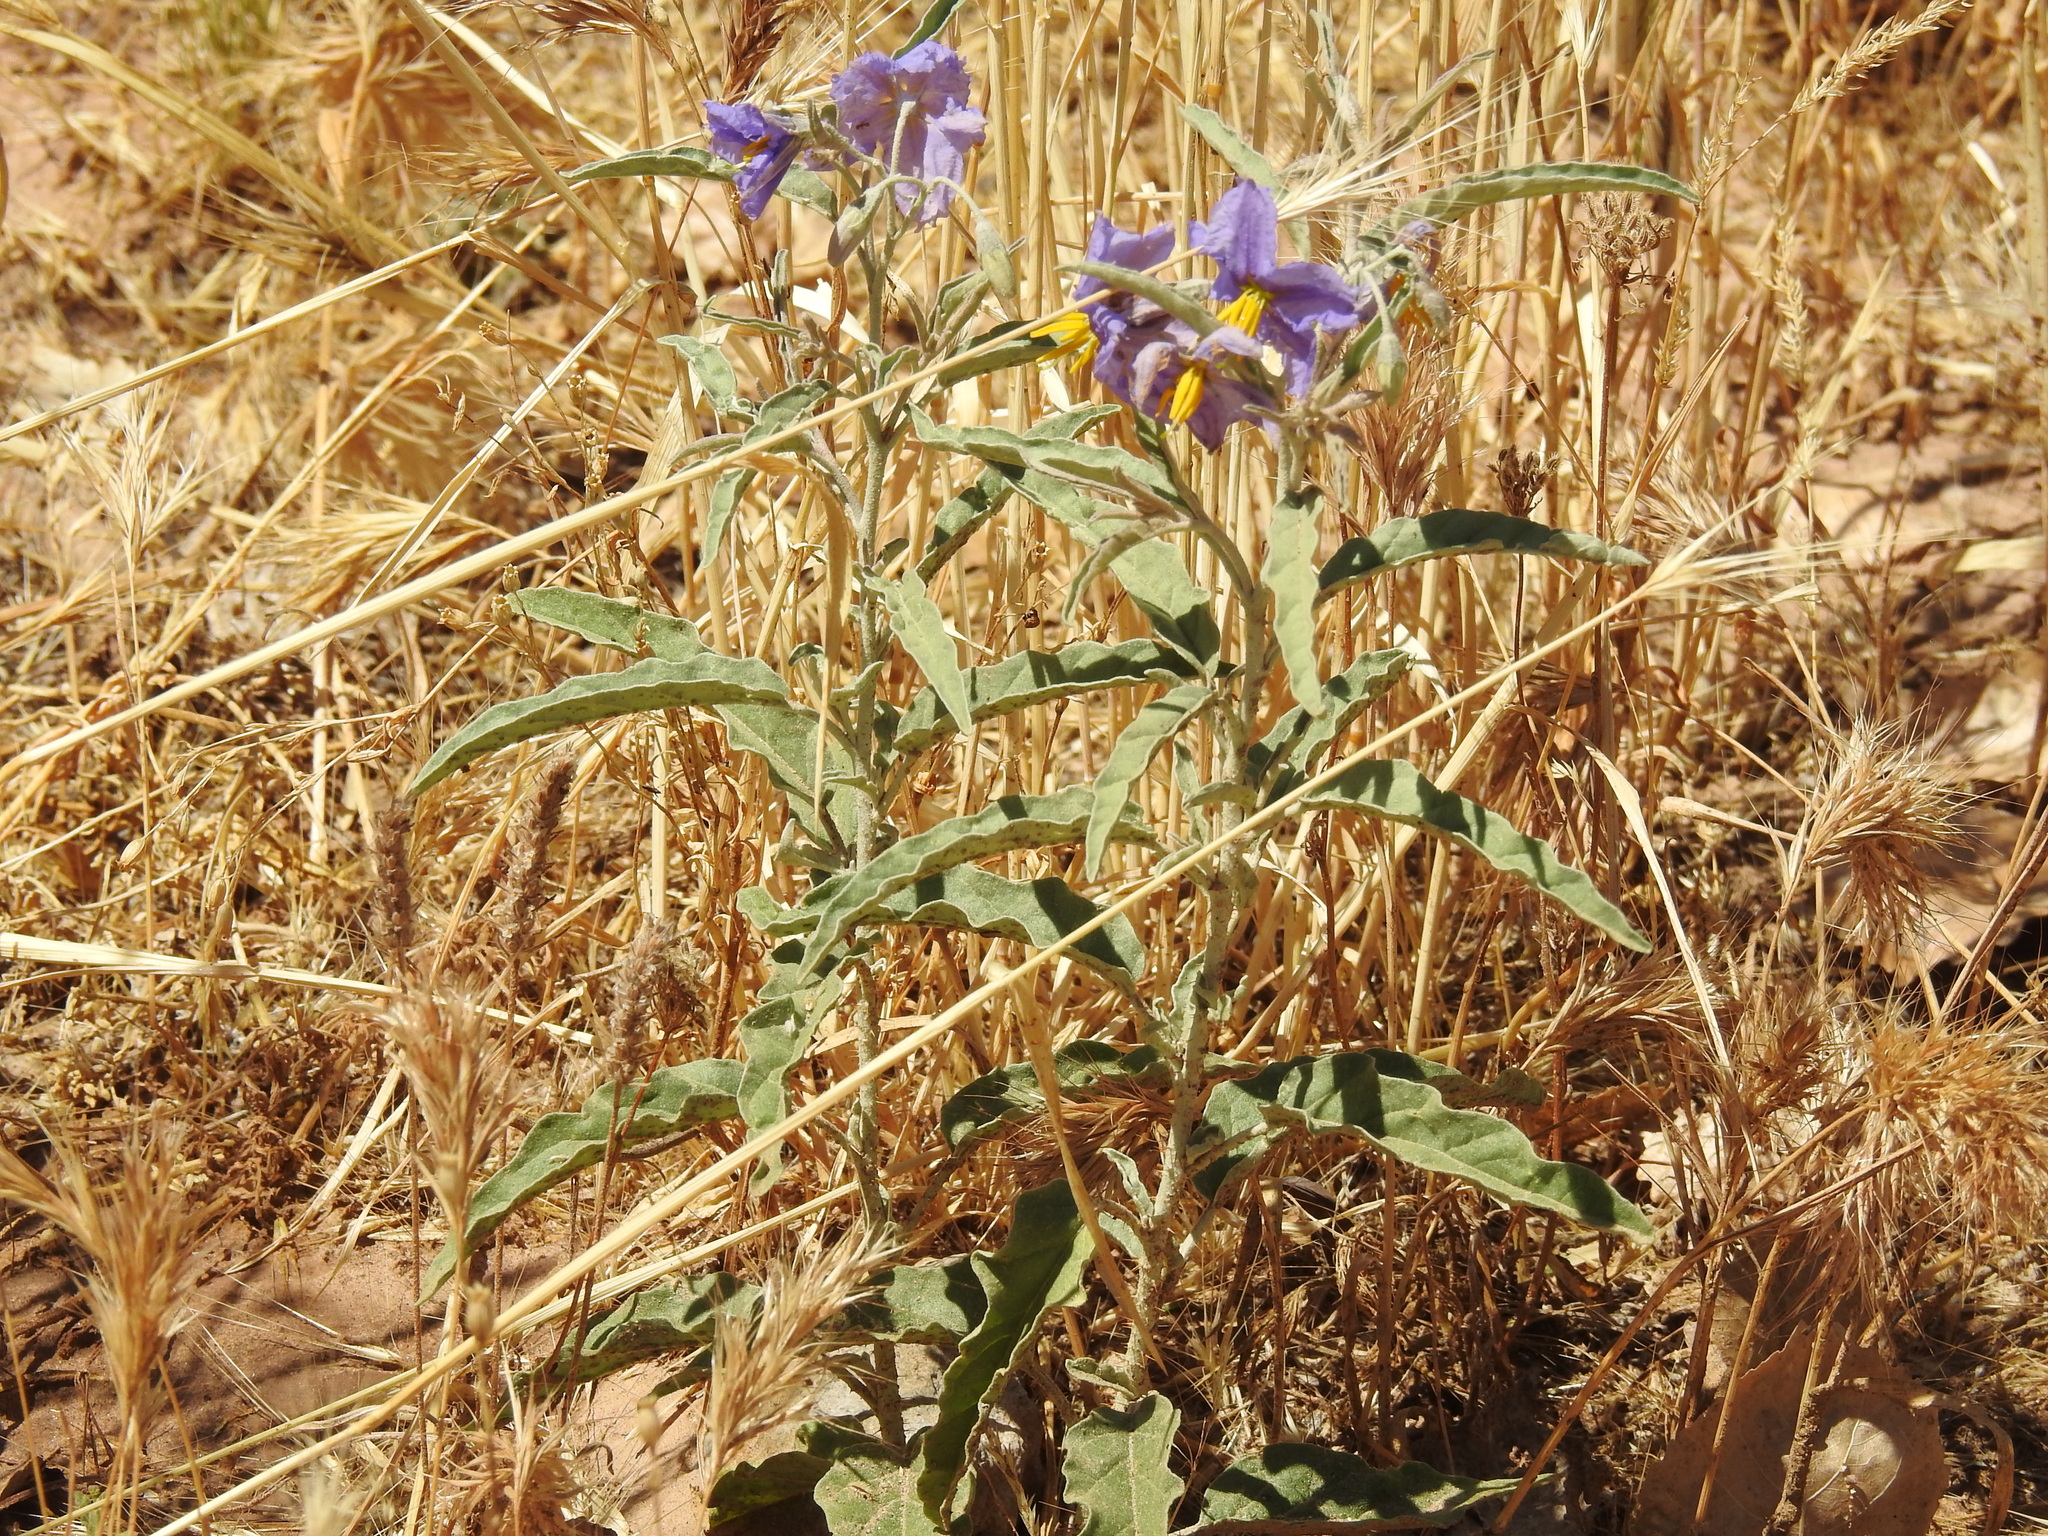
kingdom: Plantae
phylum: Tracheophyta
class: Magnoliopsida
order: Solanales
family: Solanaceae
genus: Solanum
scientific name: Solanum elaeagnifolium
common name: Silverleaf nightshade
